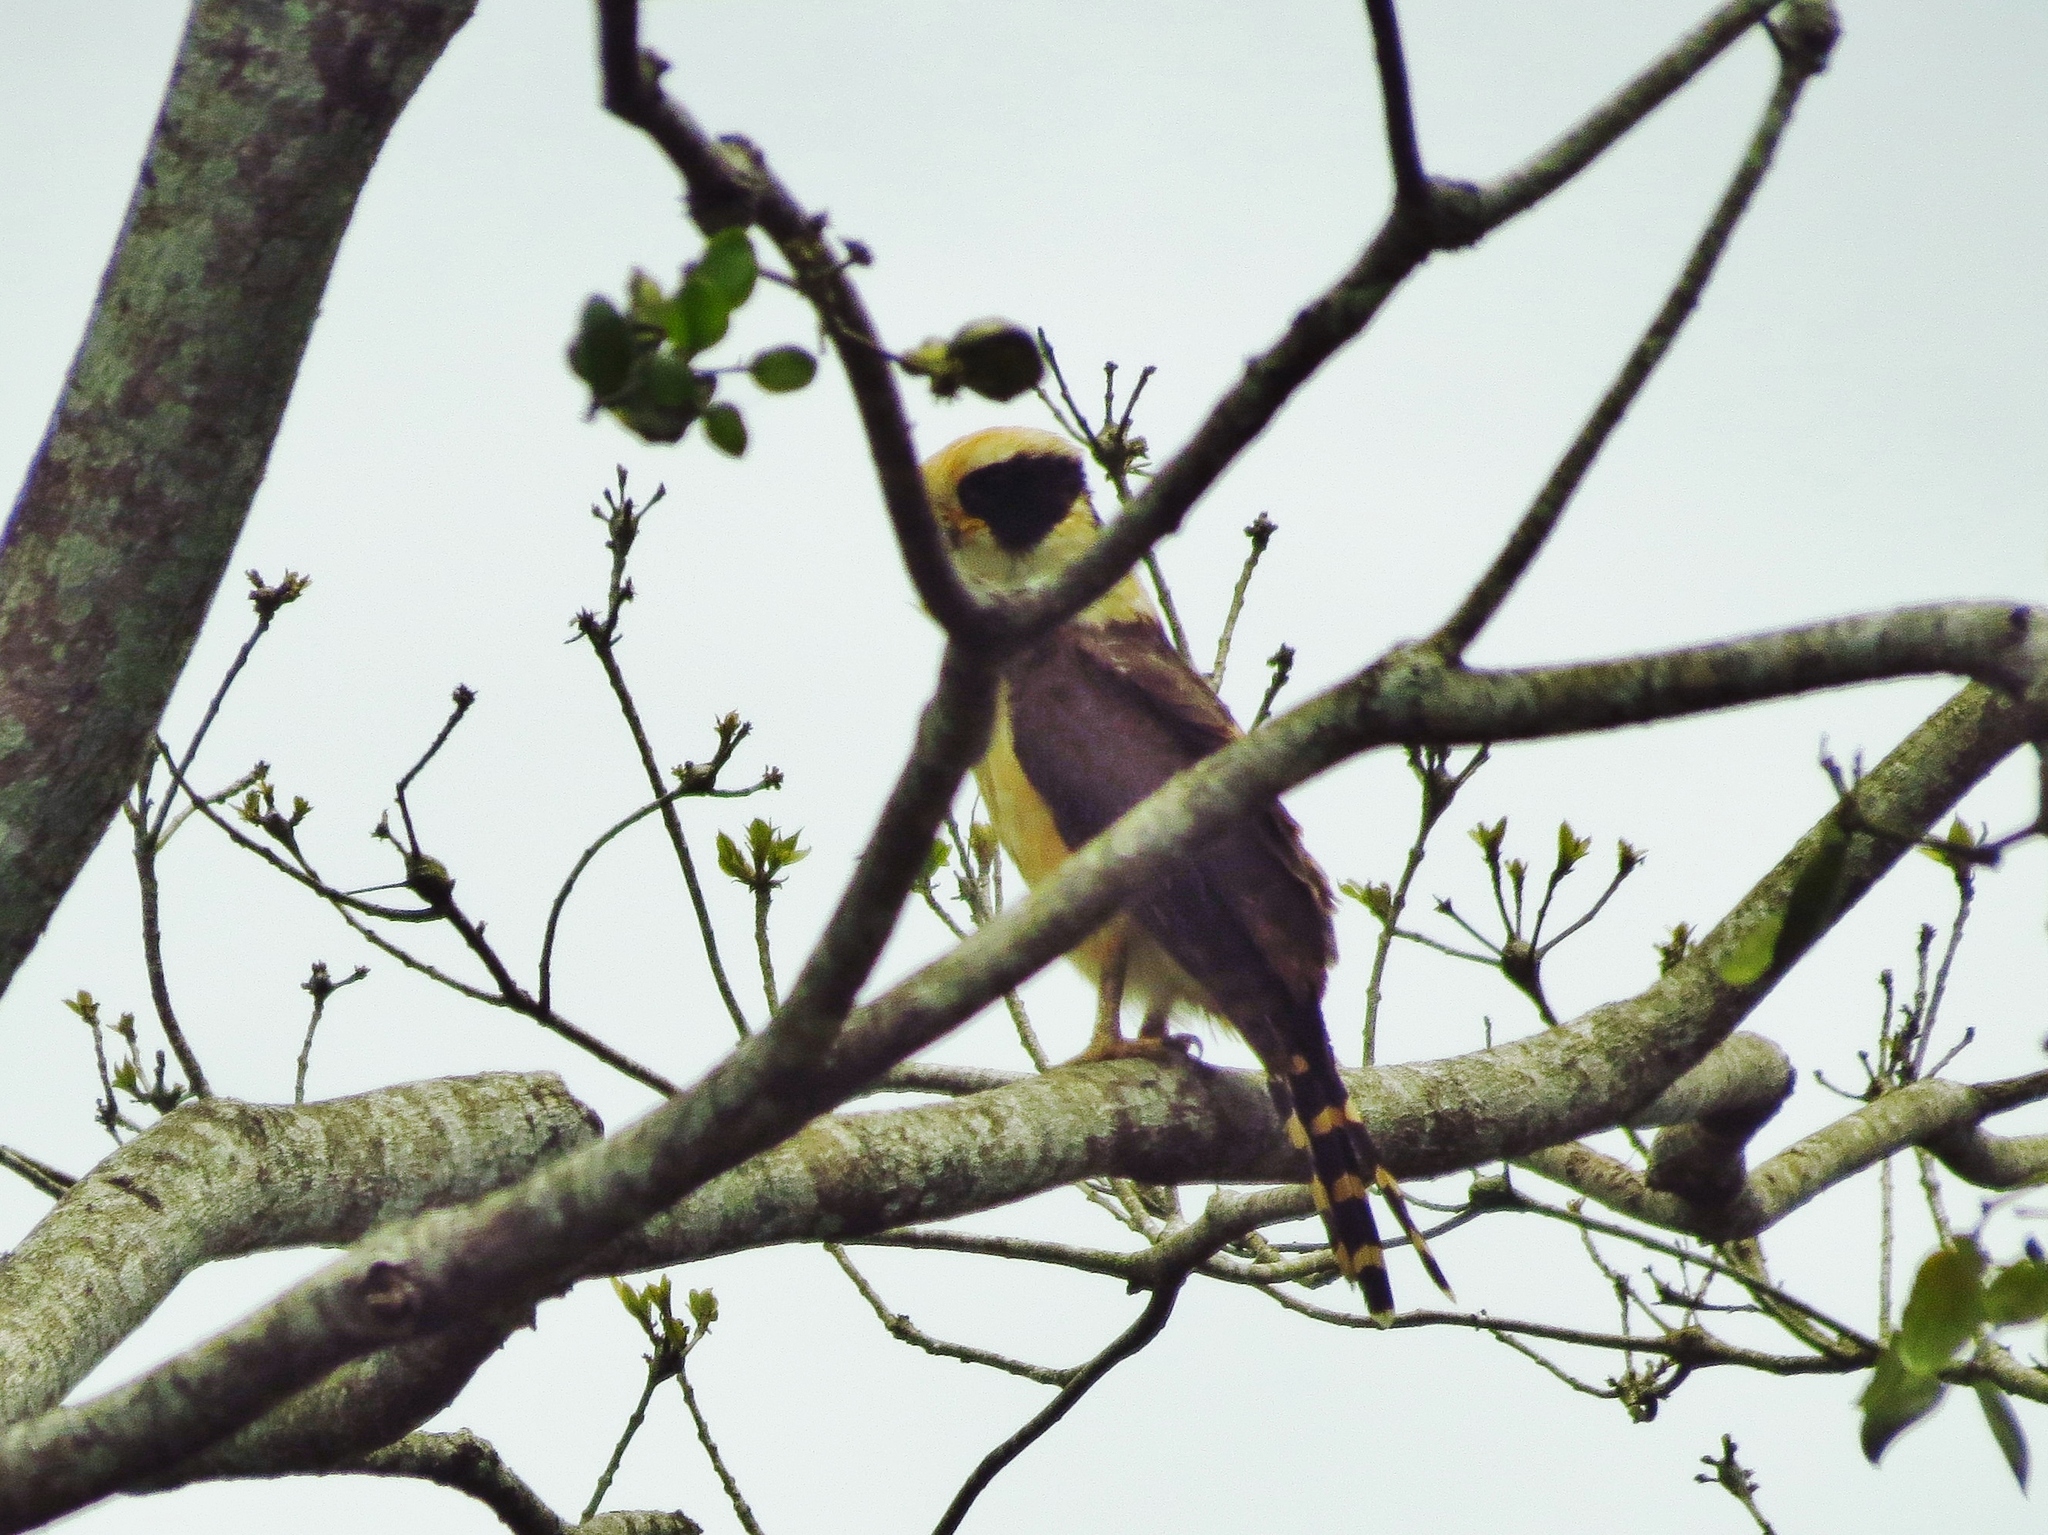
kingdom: Animalia
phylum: Chordata
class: Aves
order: Falconiformes
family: Falconidae
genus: Herpetotheres
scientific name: Herpetotheres cachinnans
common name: Laughing falcon
